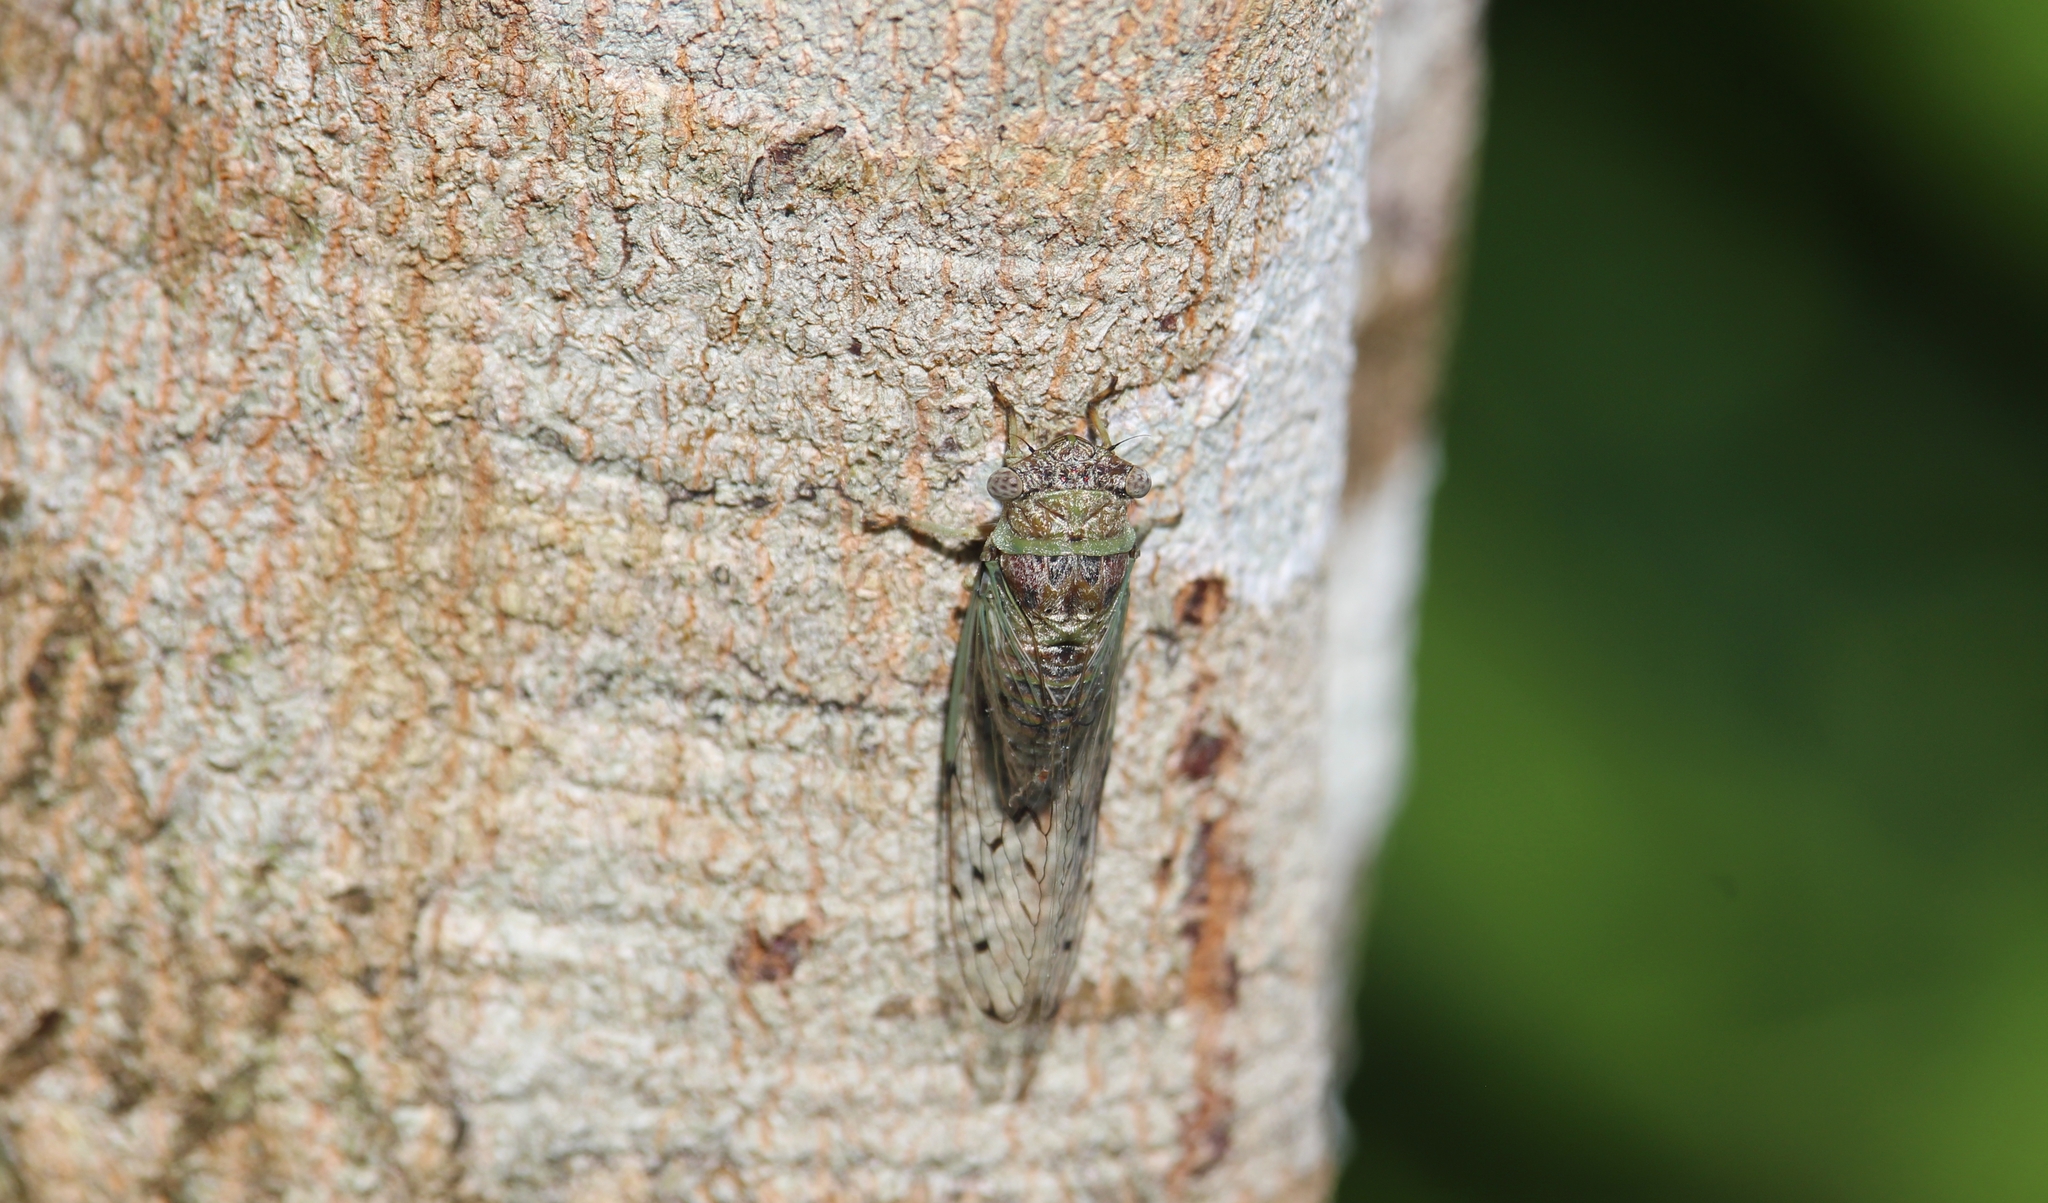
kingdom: Animalia
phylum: Arthropoda
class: Insecta
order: Hemiptera
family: Cicadidae
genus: Pacarina
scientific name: Pacarina schumanni
